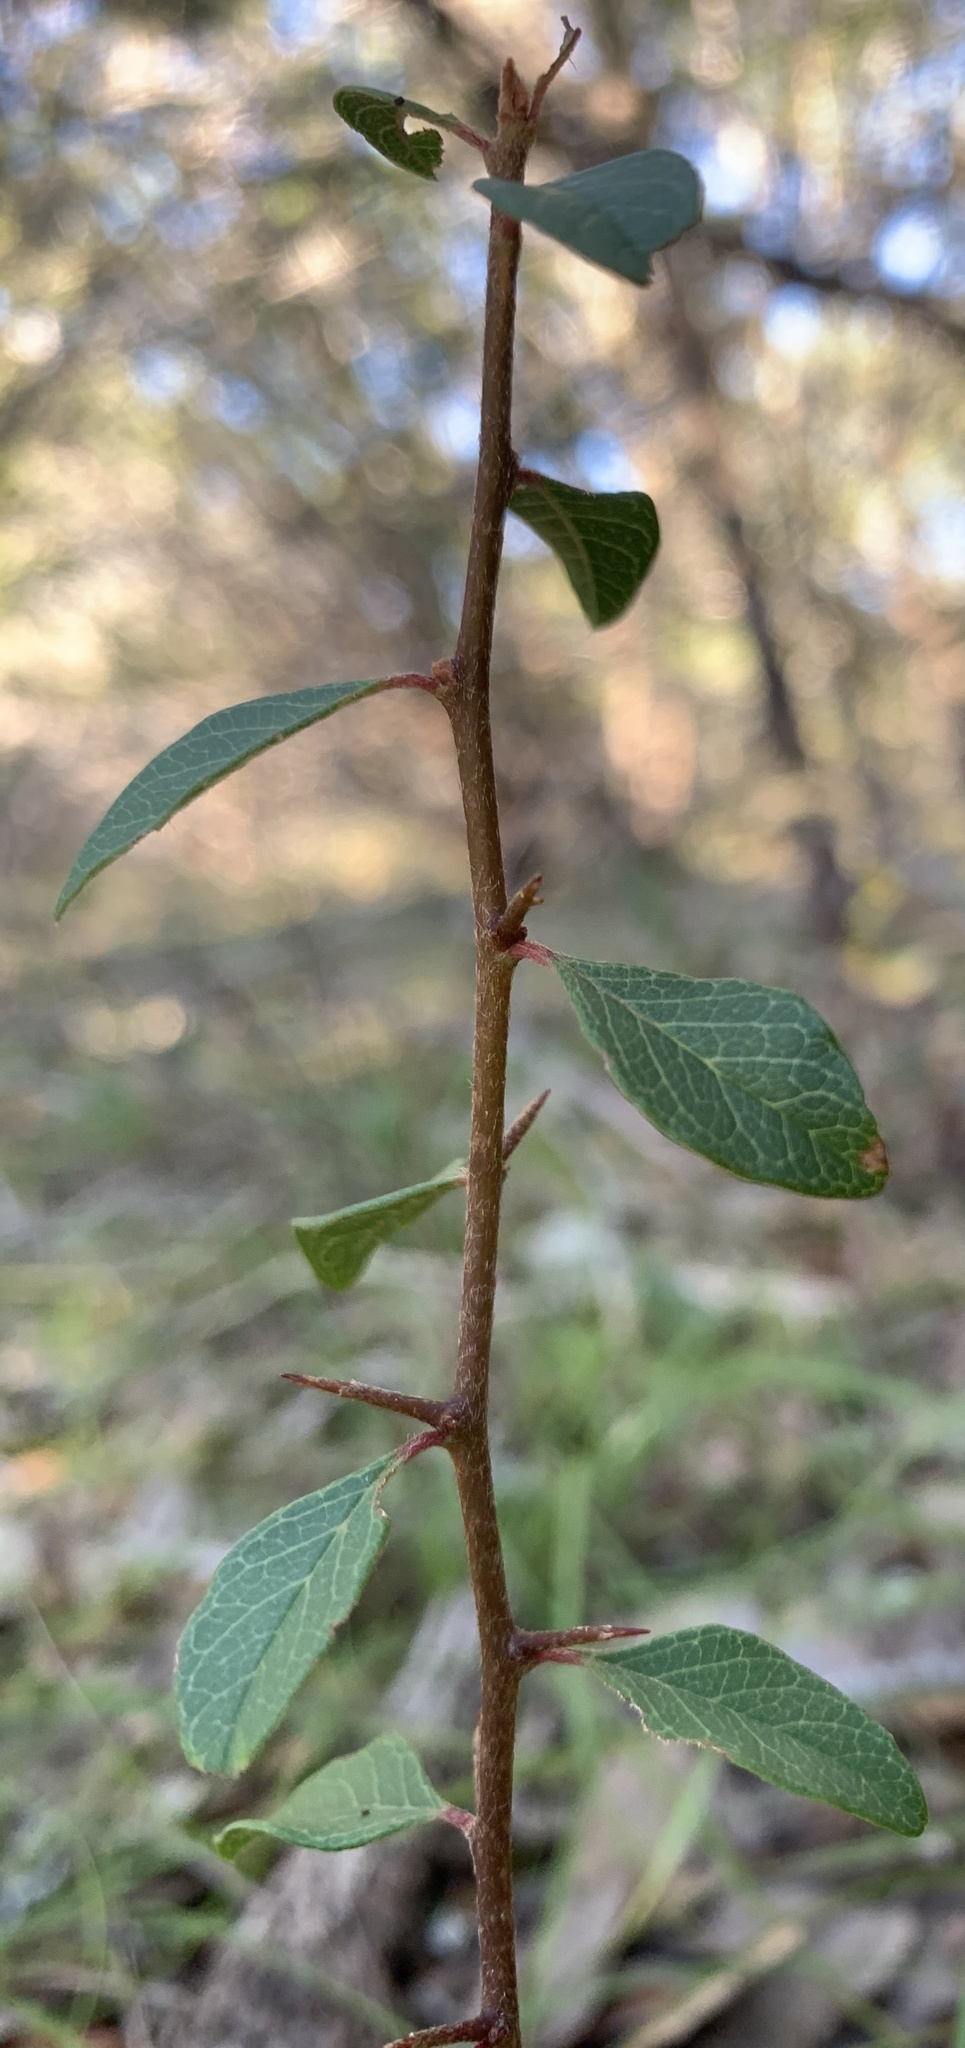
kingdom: Plantae
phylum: Tracheophyta
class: Magnoliopsida
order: Ericales
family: Sapotaceae
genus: Sideroxylon
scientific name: Sideroxylon lanuginosum
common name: Chittamwood
